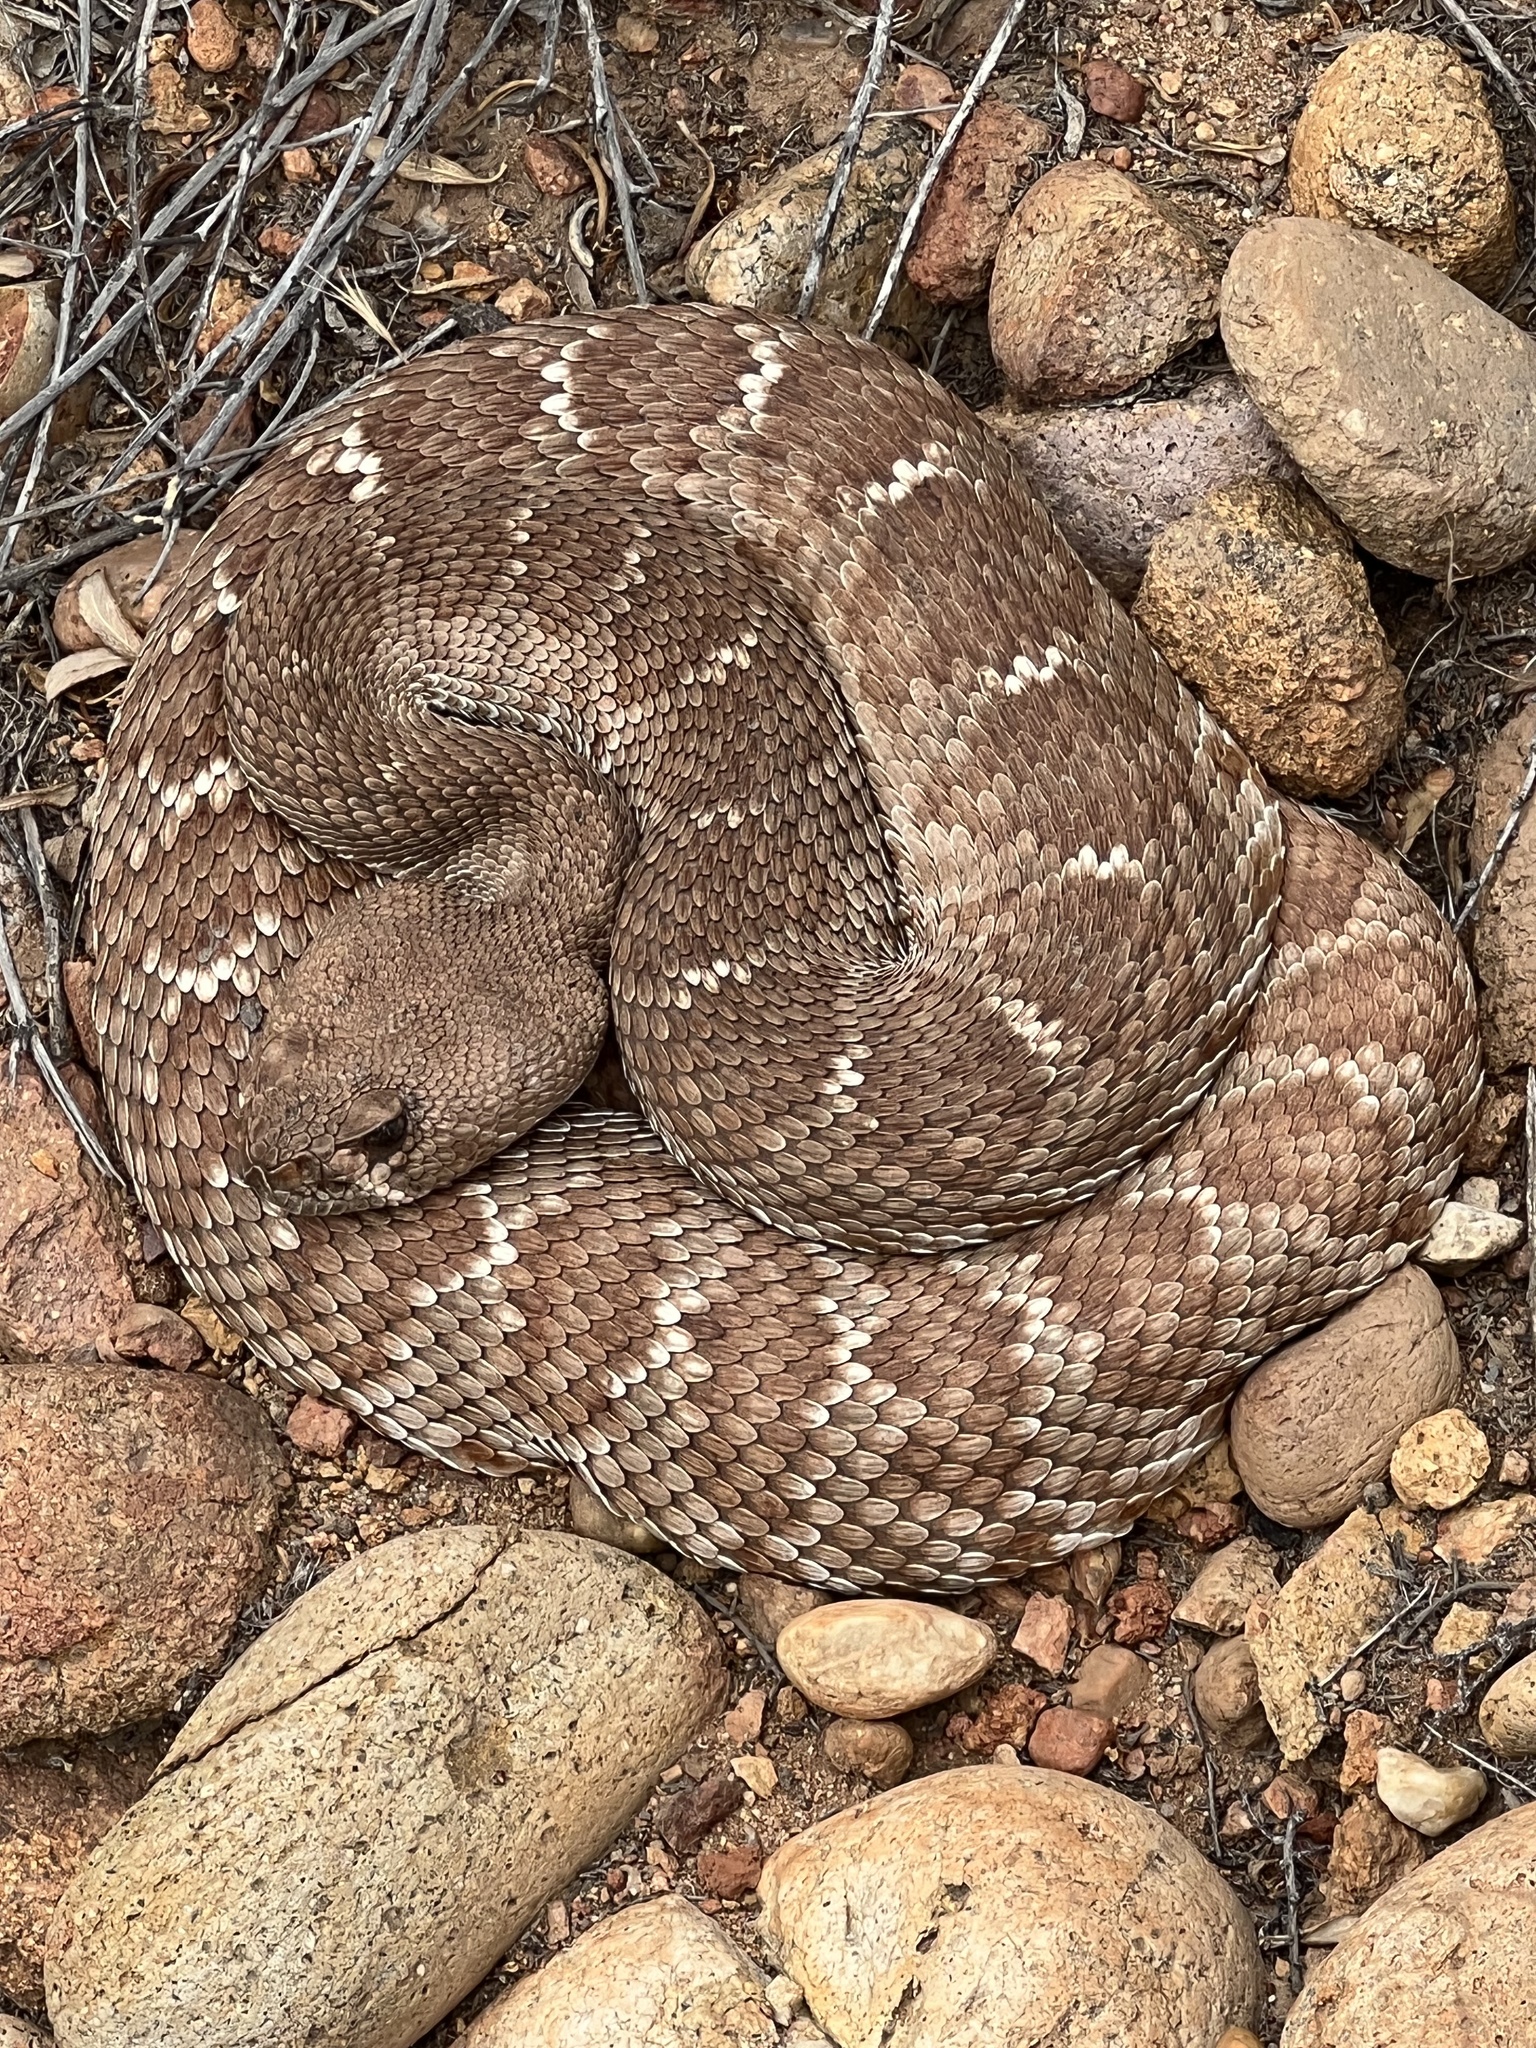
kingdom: Animalia
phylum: Chordata
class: Squamata
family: Viperidae
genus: Crotalus
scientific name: Crotalus ruber
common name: Red diamond rattlesnake
